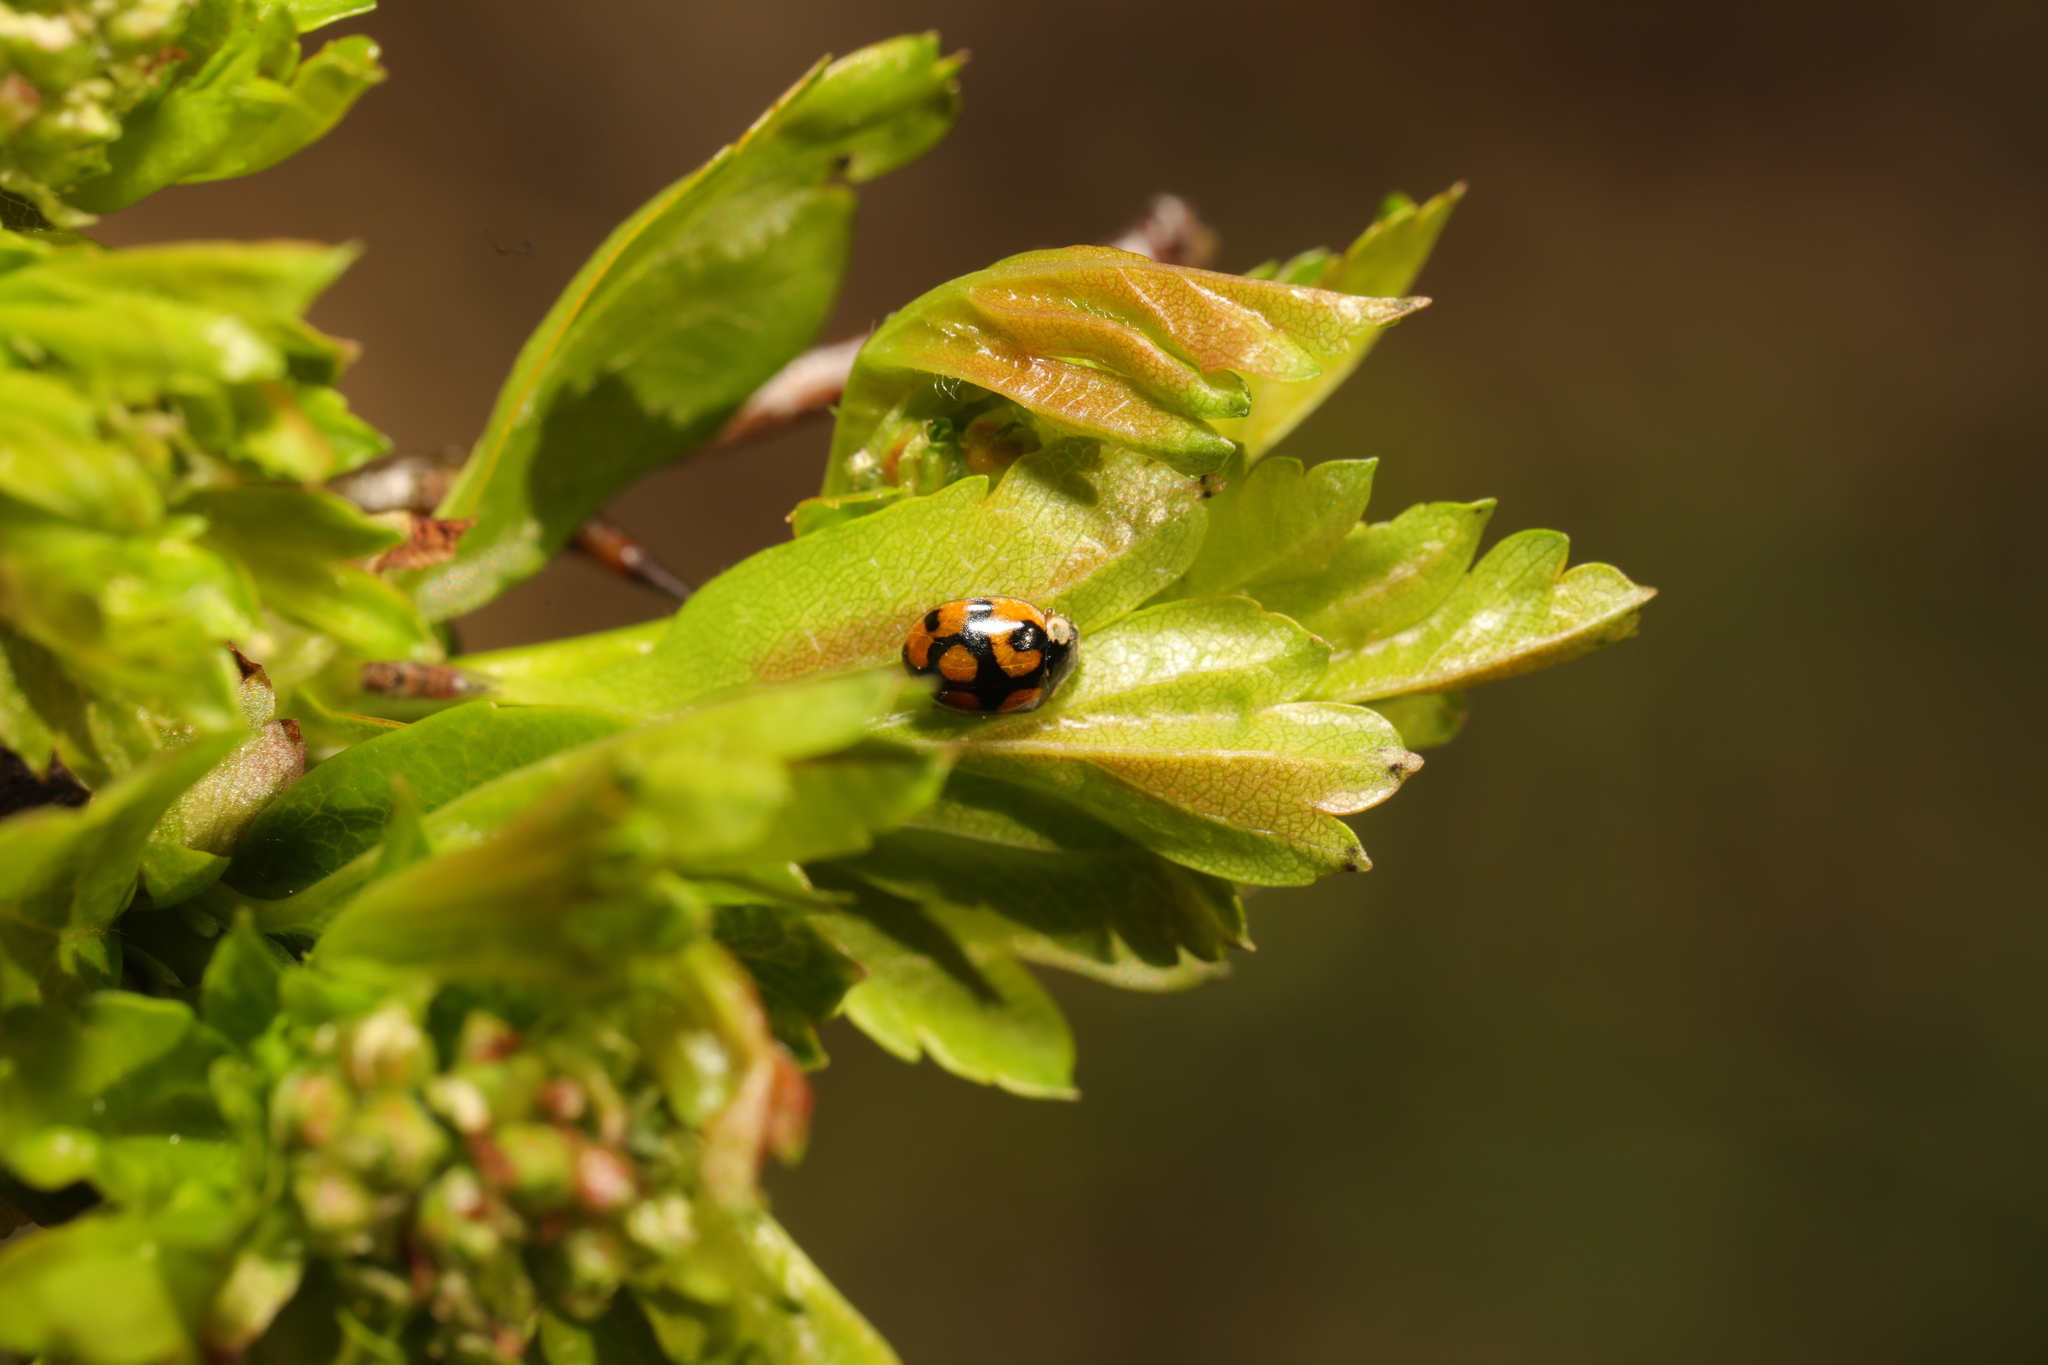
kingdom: Animalia
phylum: Arthropoda
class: Insecta
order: Coleoptera
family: Coccinellidae
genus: Adalia
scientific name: Adalia decempunctata
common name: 10-spot ladybird
